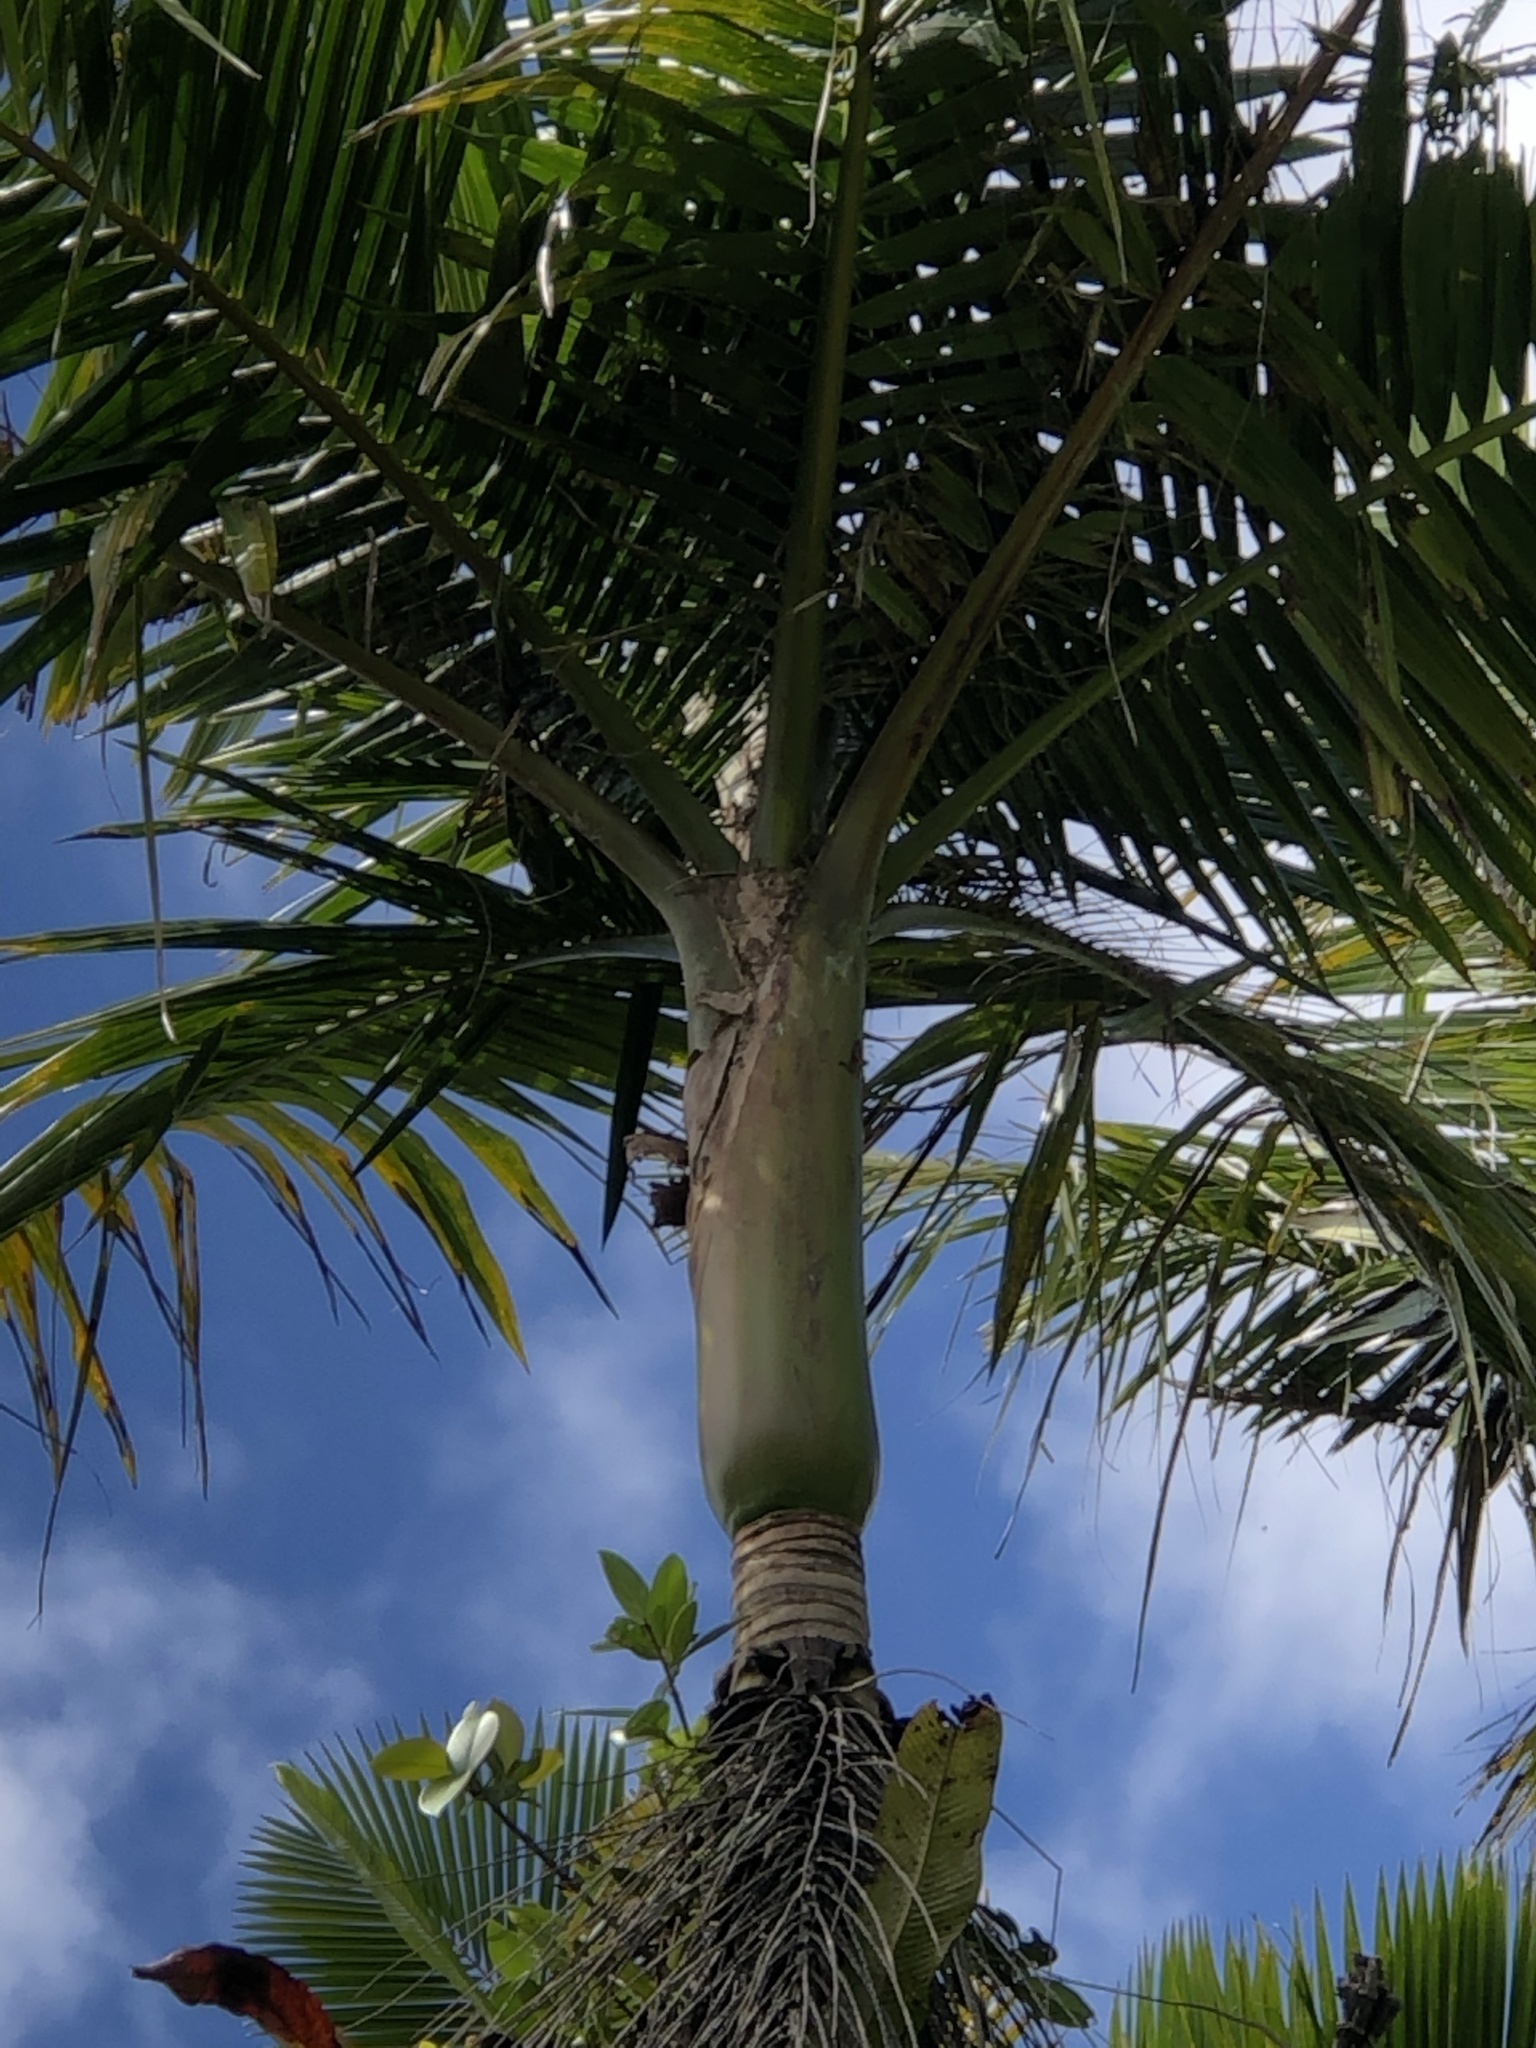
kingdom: Plantae
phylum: Tracheophyta
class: Liliopsida
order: Arecales
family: Arecaceae
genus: Prestoea
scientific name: Prestoea acuminata
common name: Sierran palm
